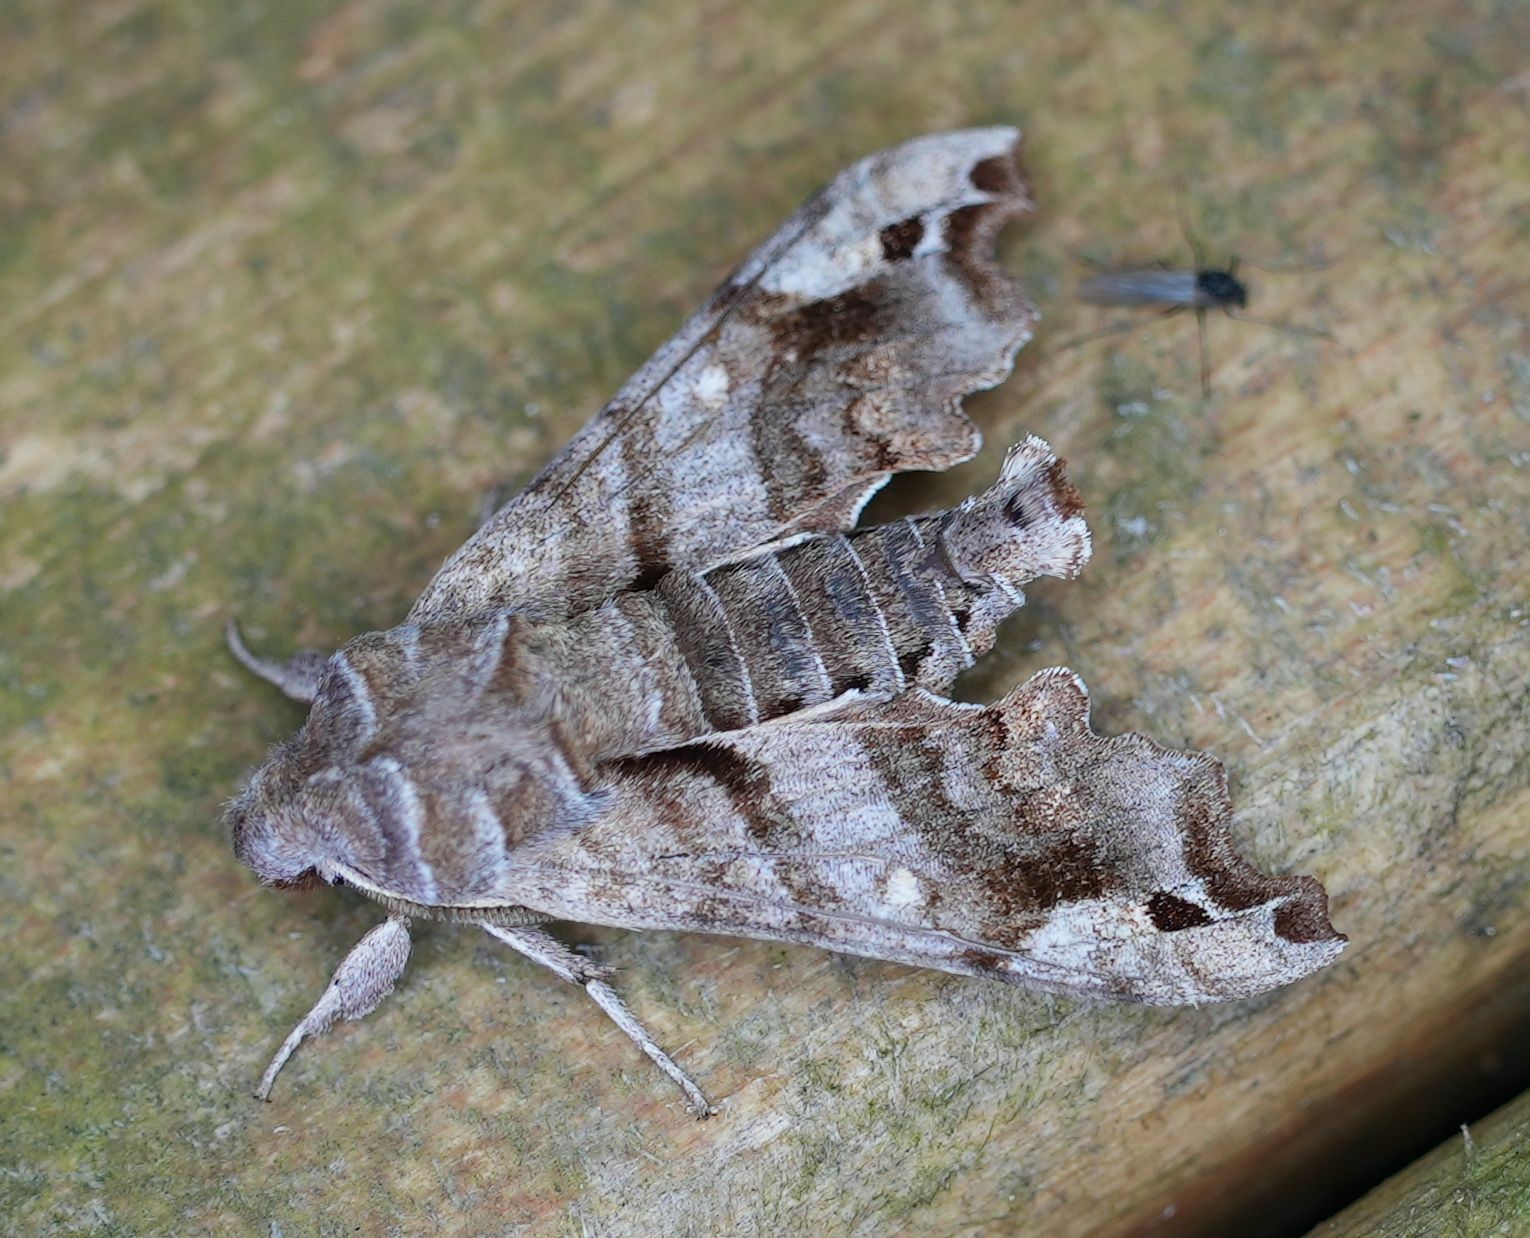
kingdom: Animalia
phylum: Arthropoda
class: Insecta
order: Lepidoptera
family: Sphingidae
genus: Deidamia
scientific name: Deidamia inscriptum
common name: Lettered sphinx
